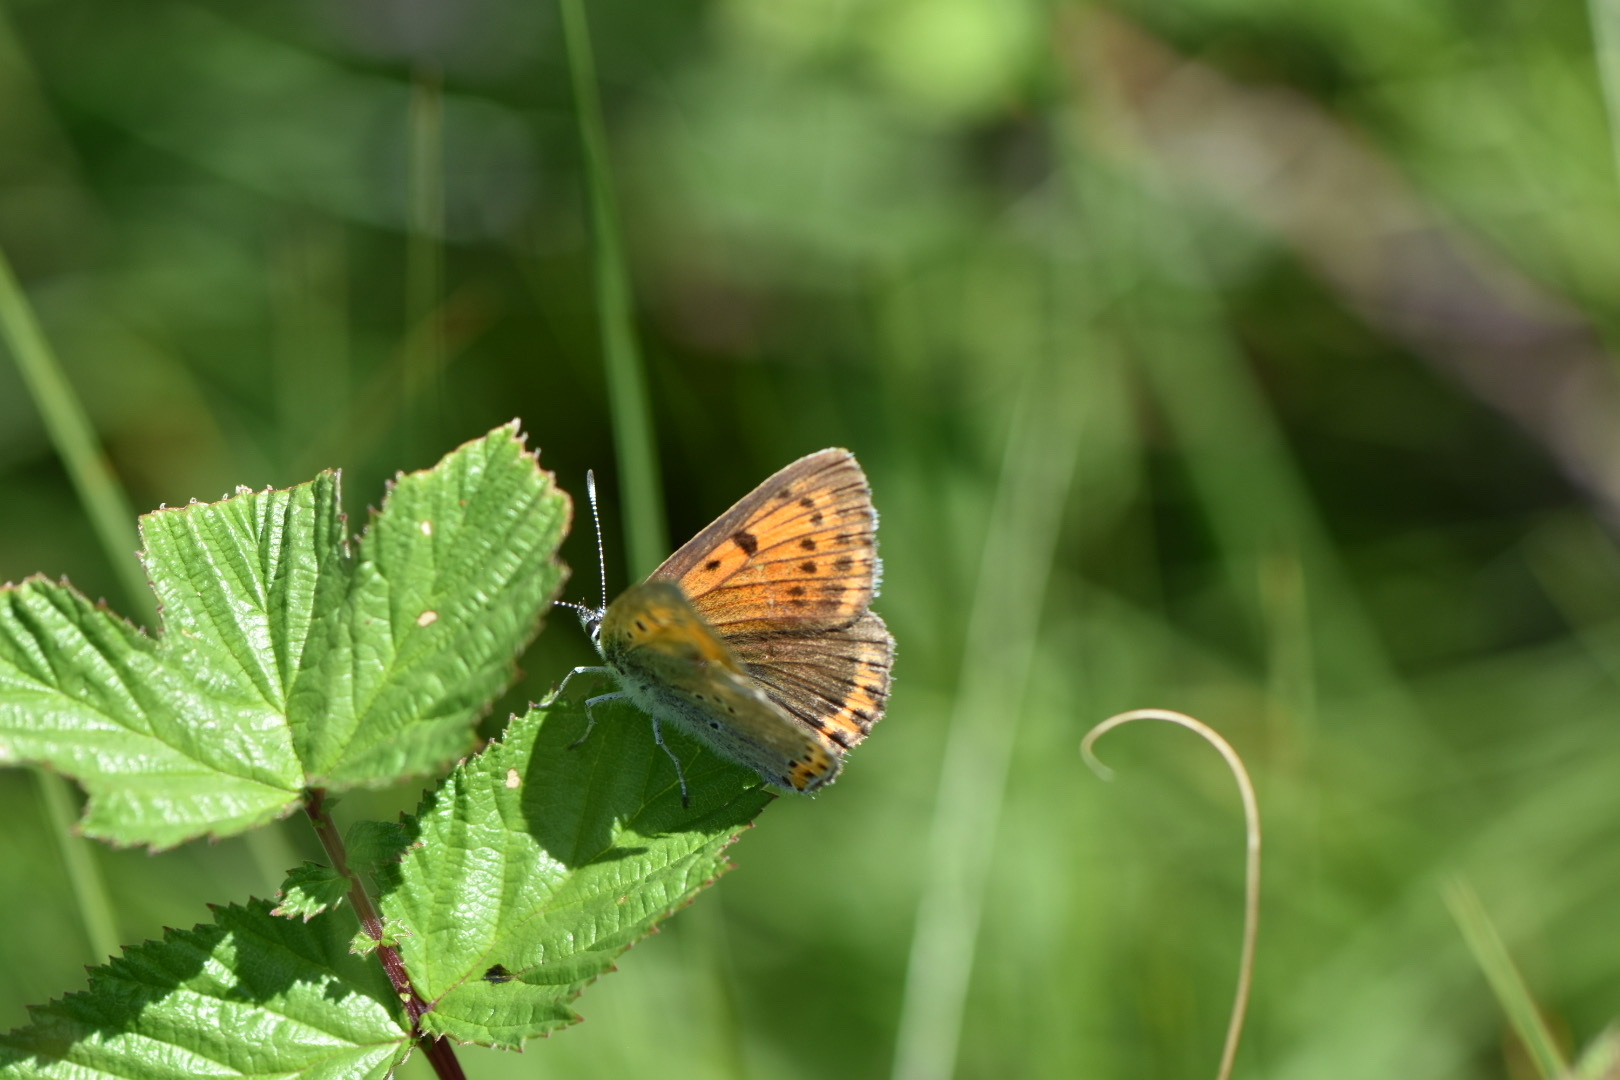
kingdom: Animalia
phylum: Arthropoda
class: Insecta
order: Lepidoptera
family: Lycaenidae
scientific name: Lycaenidae
